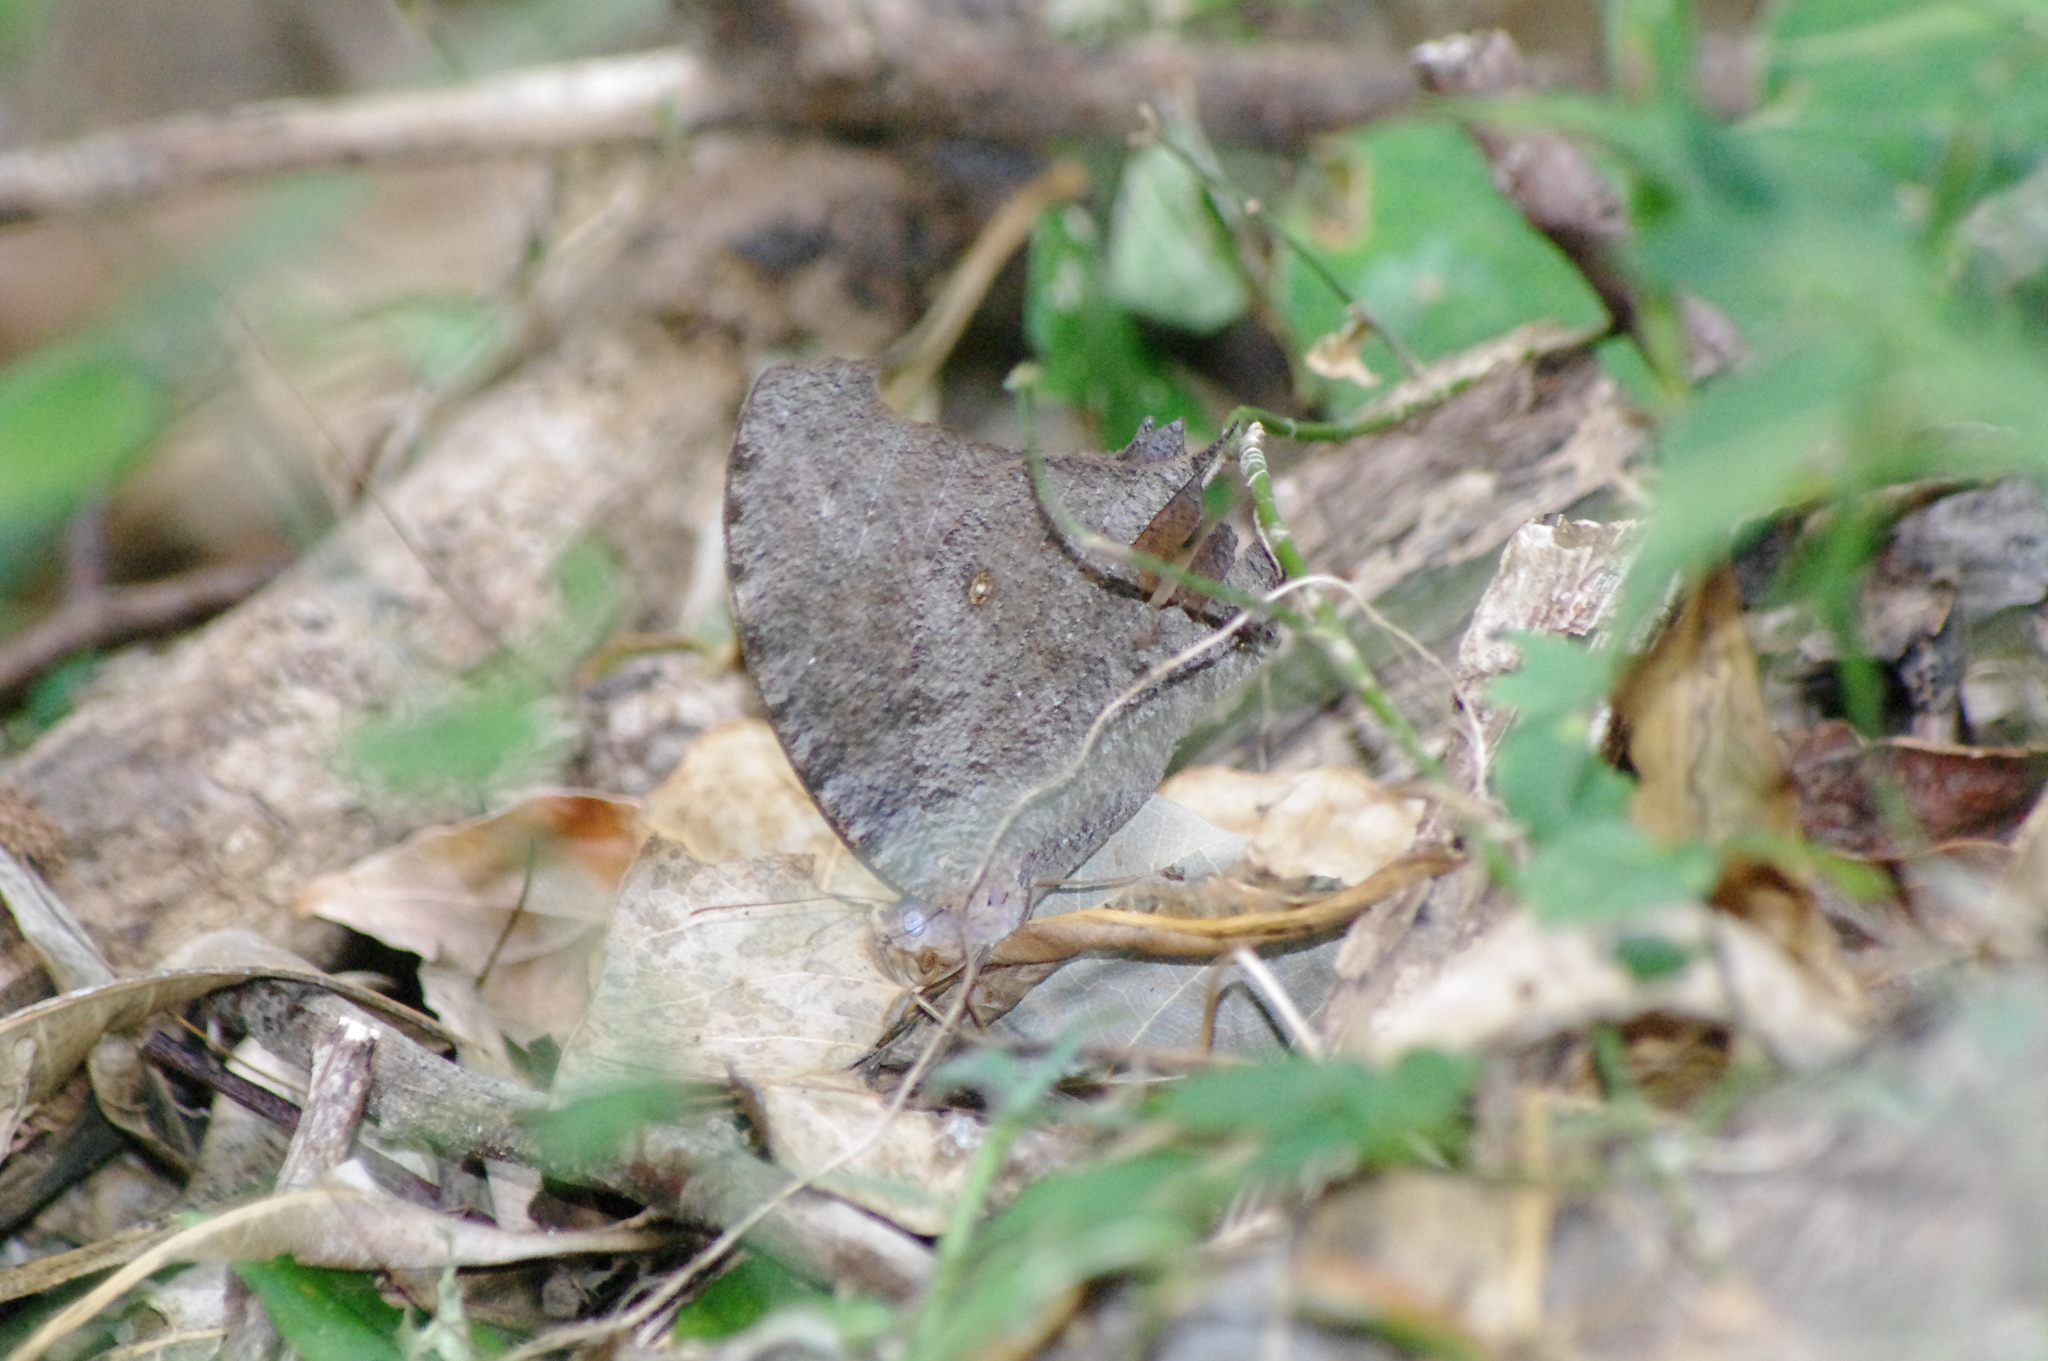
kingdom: Animalia
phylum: Arthropoda
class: Insecta
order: Lepidoptera
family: Nymphalidae
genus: Melanitis
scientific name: Melanitis leda
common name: Twilight brown
